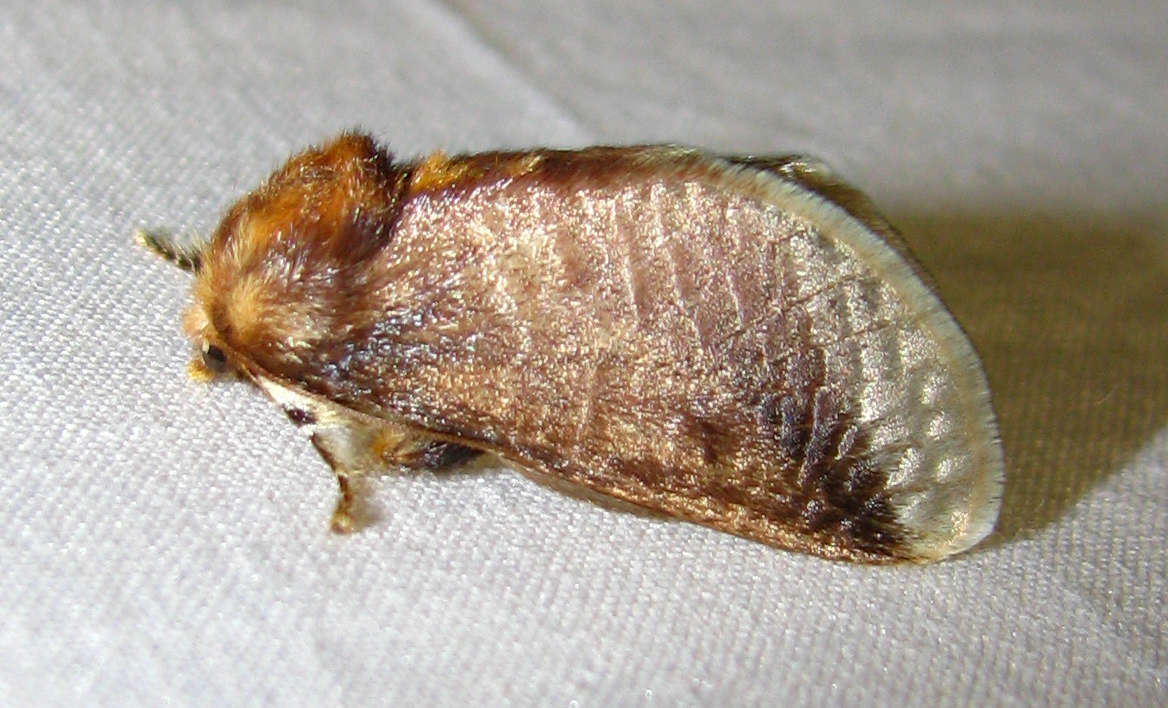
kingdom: Animalia
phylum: Arthropoda
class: Insecta
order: Lepidoptera
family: Limacodidae
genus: Doratifera
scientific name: Doratifera oxleyi
